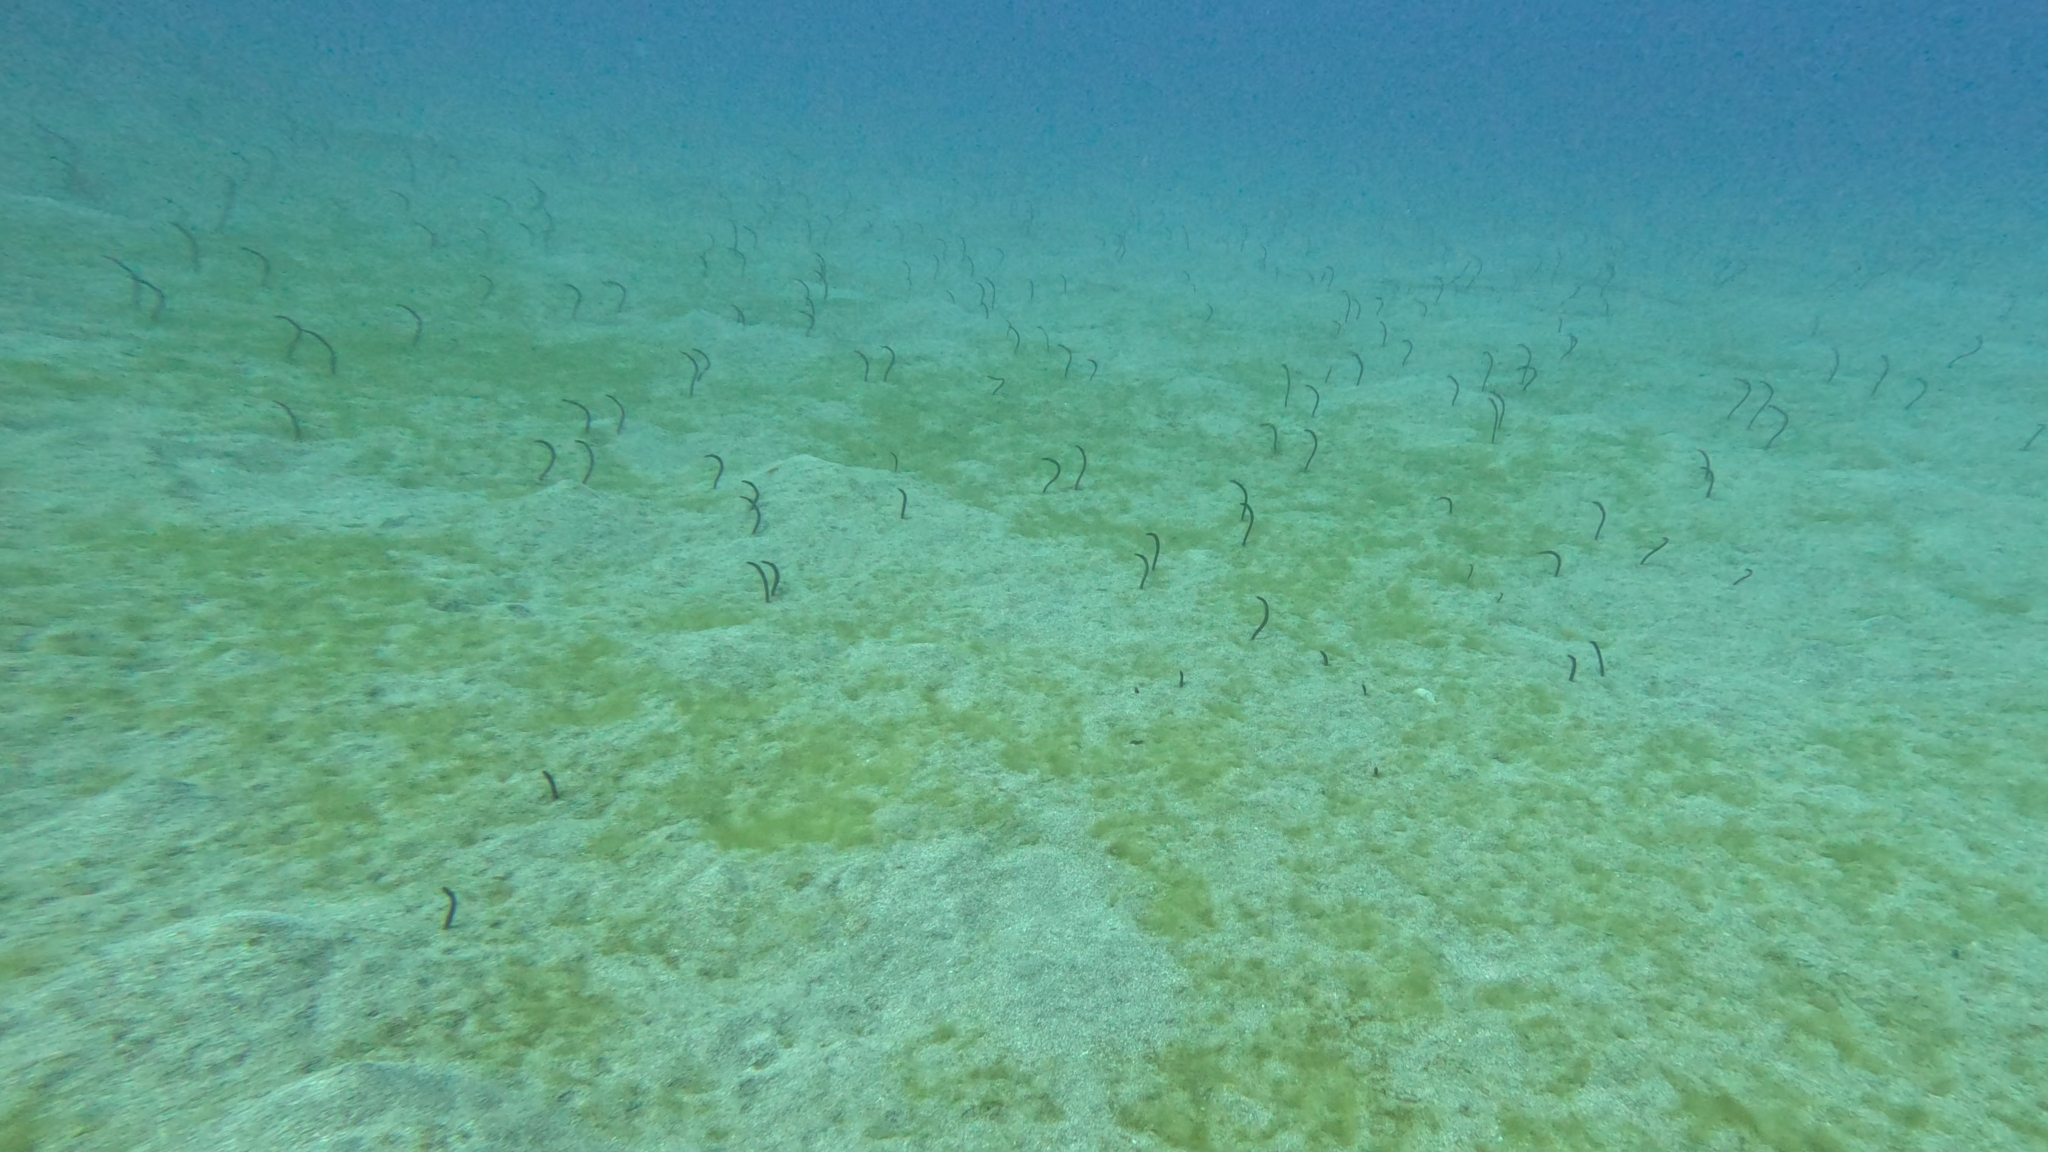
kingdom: Animalia
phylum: Chordata
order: Anguilliformes
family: Congridae
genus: Heteroconger
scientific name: Heteroconger longissimus
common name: Garden eel
